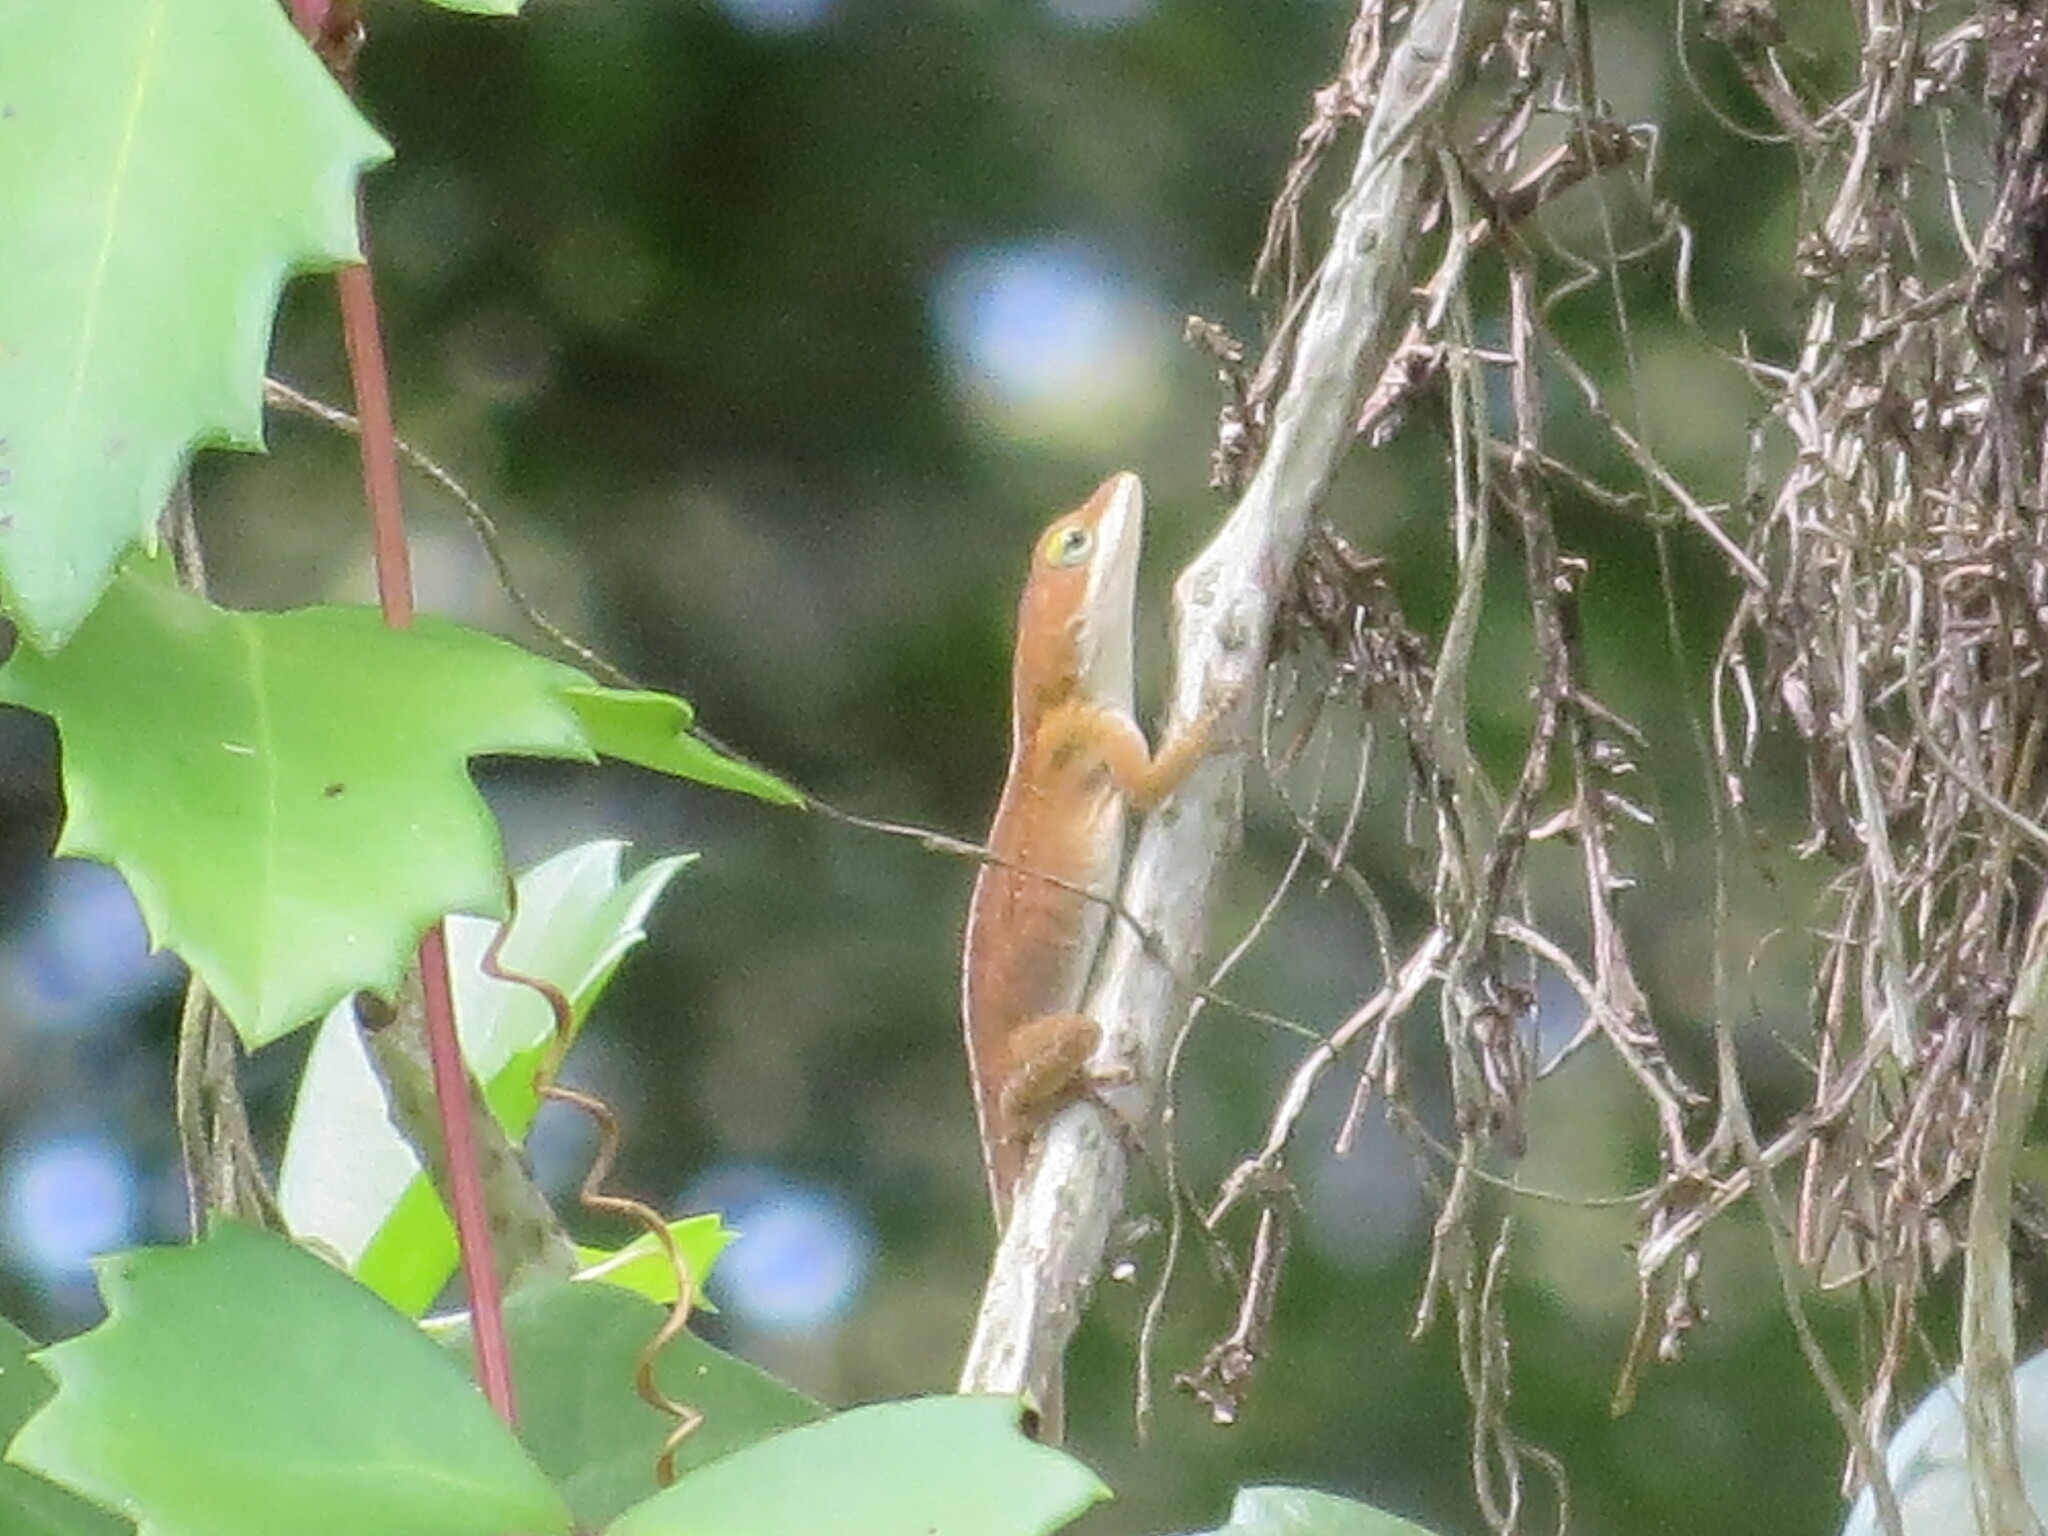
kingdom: Animalia
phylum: Chordata
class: Squamata
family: Dactyloidae
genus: Anolis
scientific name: Anolis carolinensis
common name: Green anole
